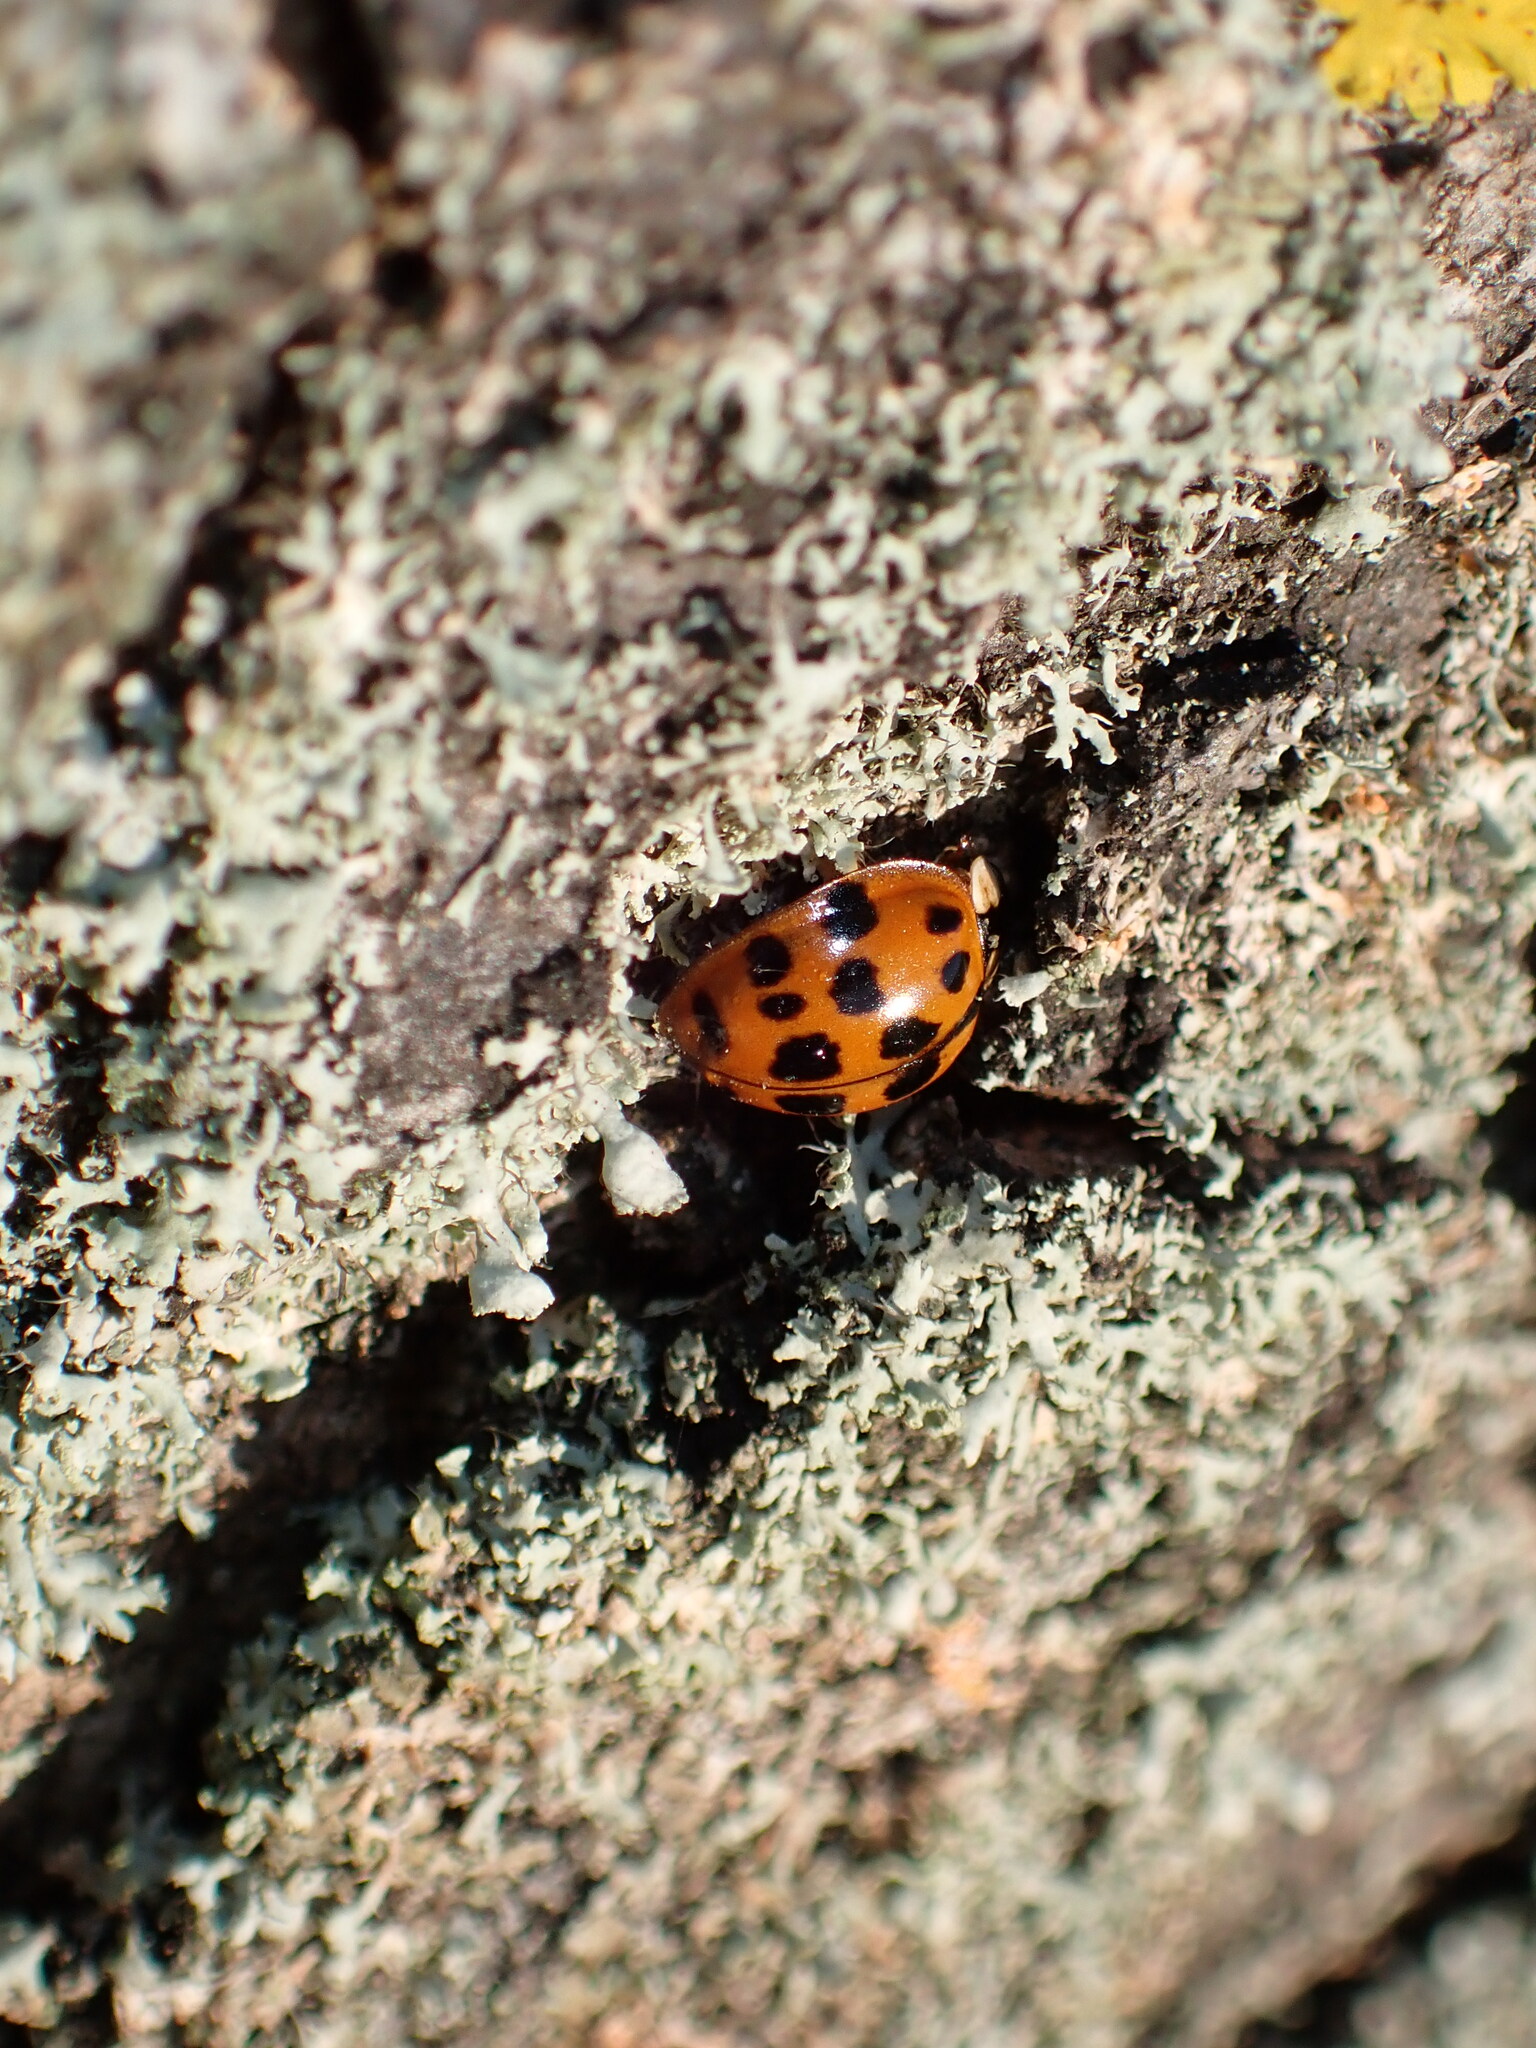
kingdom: Animalia
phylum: Arthropoda
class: Insecta
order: Coleoptera
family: Coccinellidae
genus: Harmonia
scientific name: Harmonia axyridis
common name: Harlequin ladybird
